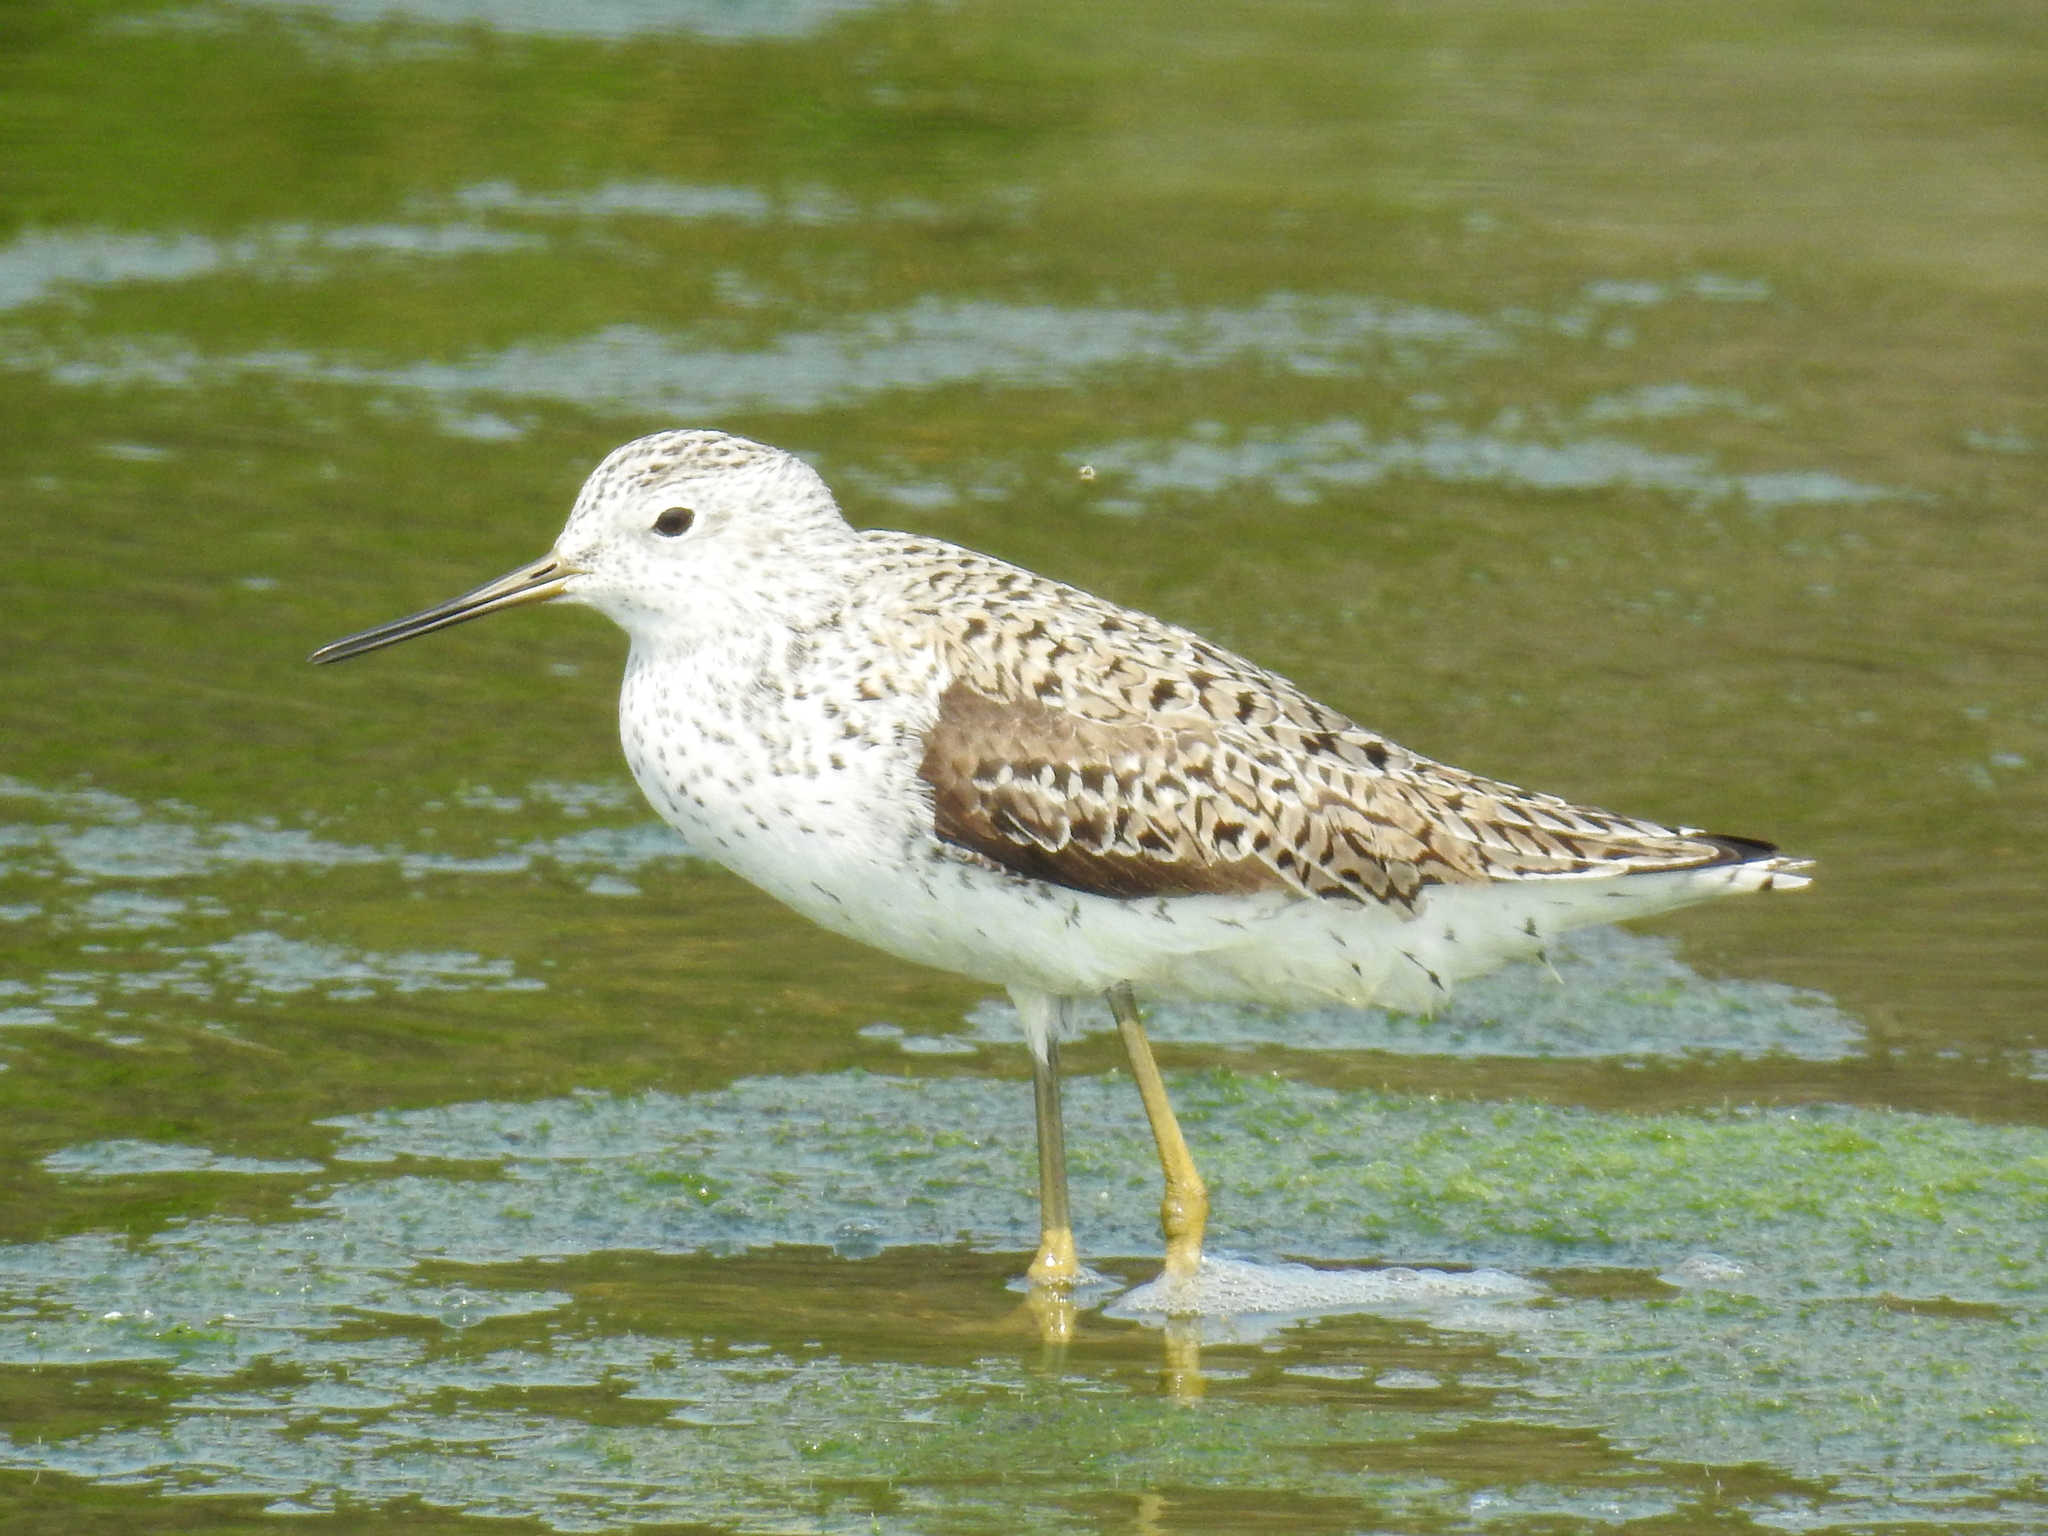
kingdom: Animalia
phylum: Chordata
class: Aves
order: Charadriiformes
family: Scolopacidae
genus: Tringa
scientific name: Tringa stagnatilis
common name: Marsh sandpiper
